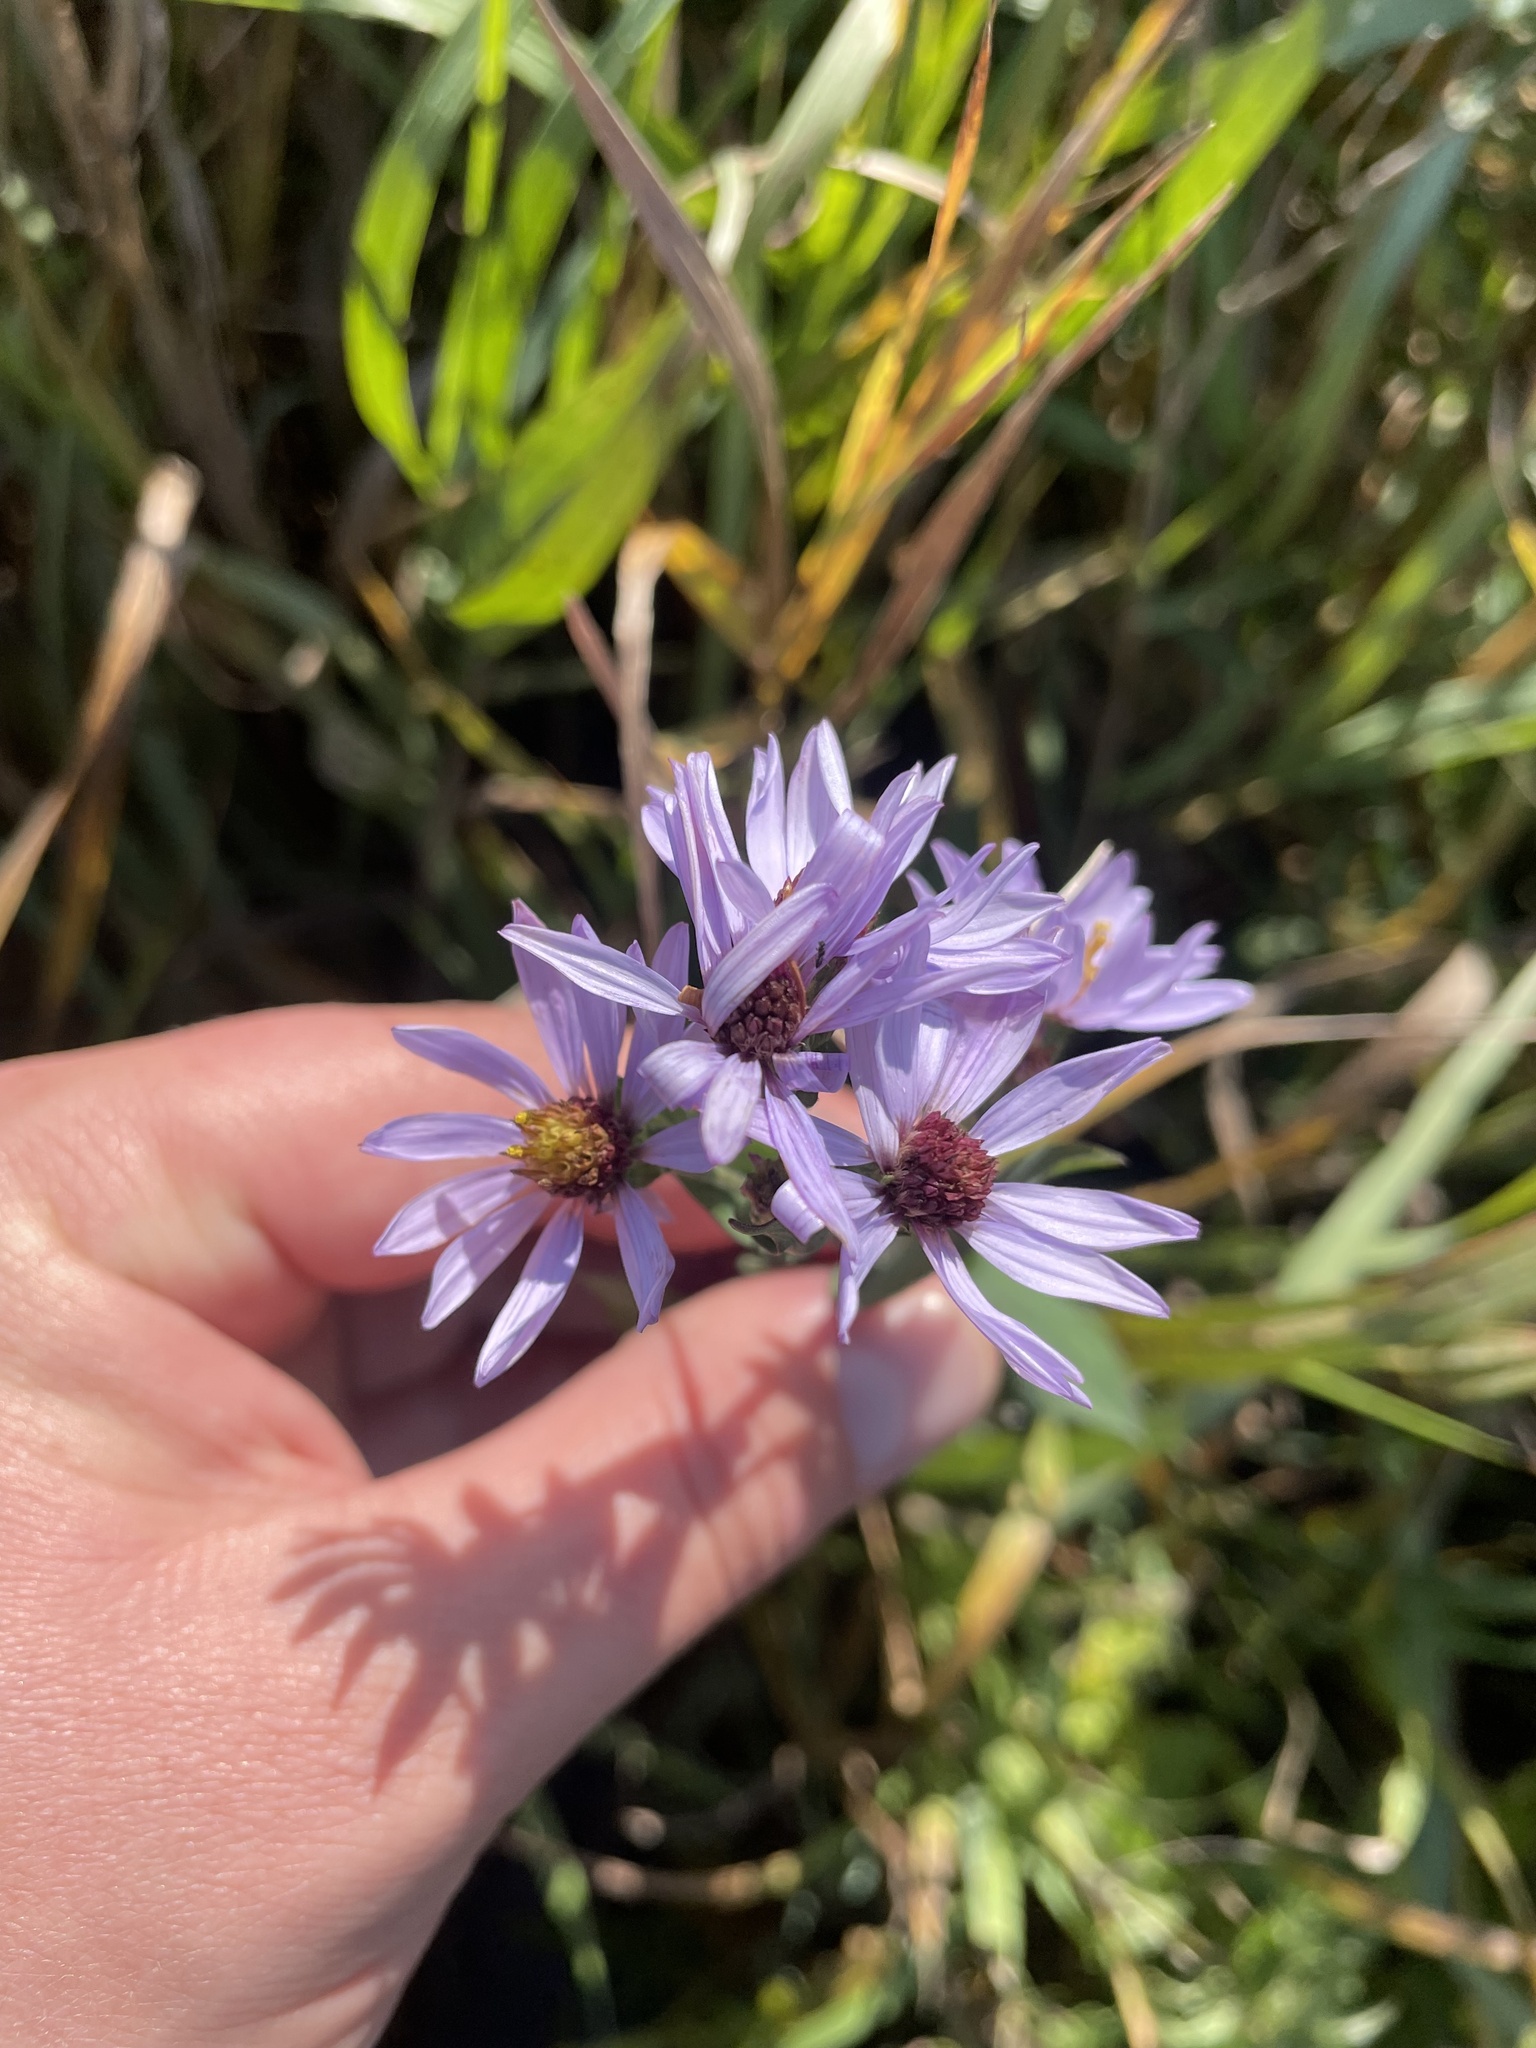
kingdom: Plantae
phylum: Tracheophyta
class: Magnoliopsida
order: Asterales
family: Asteraceae
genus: Symphyotrichum
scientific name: Symphyotrichum laeve
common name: Glaucous aster
